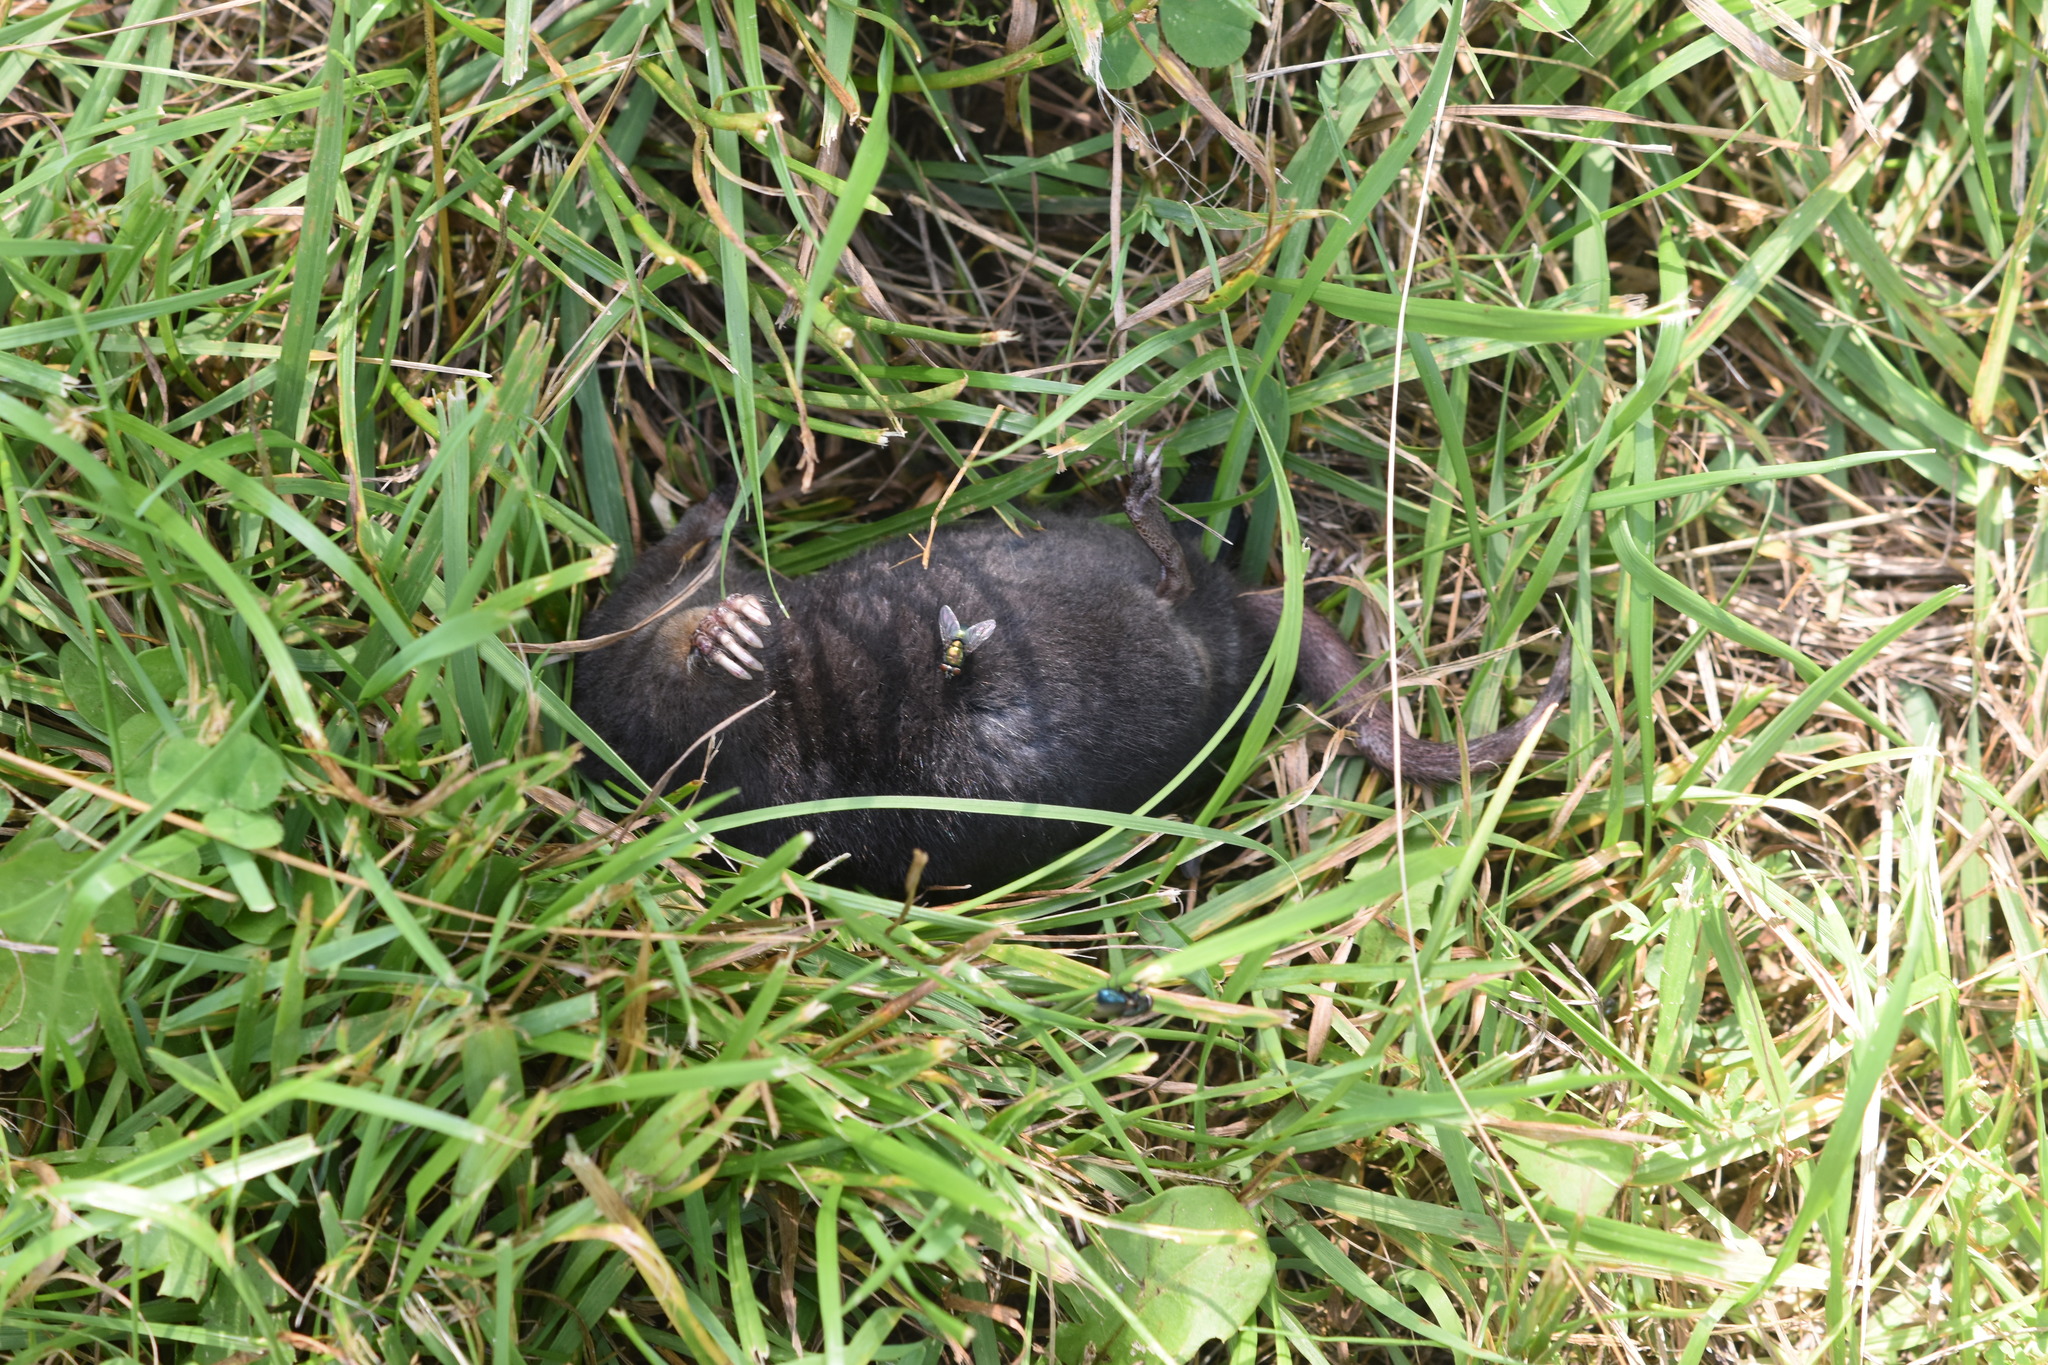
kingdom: Animalia
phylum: Chordata
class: Mammalia
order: Soricomorpha
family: Talpidae
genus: Condylura
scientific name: Condylura cristata
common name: Star-nosed mole
